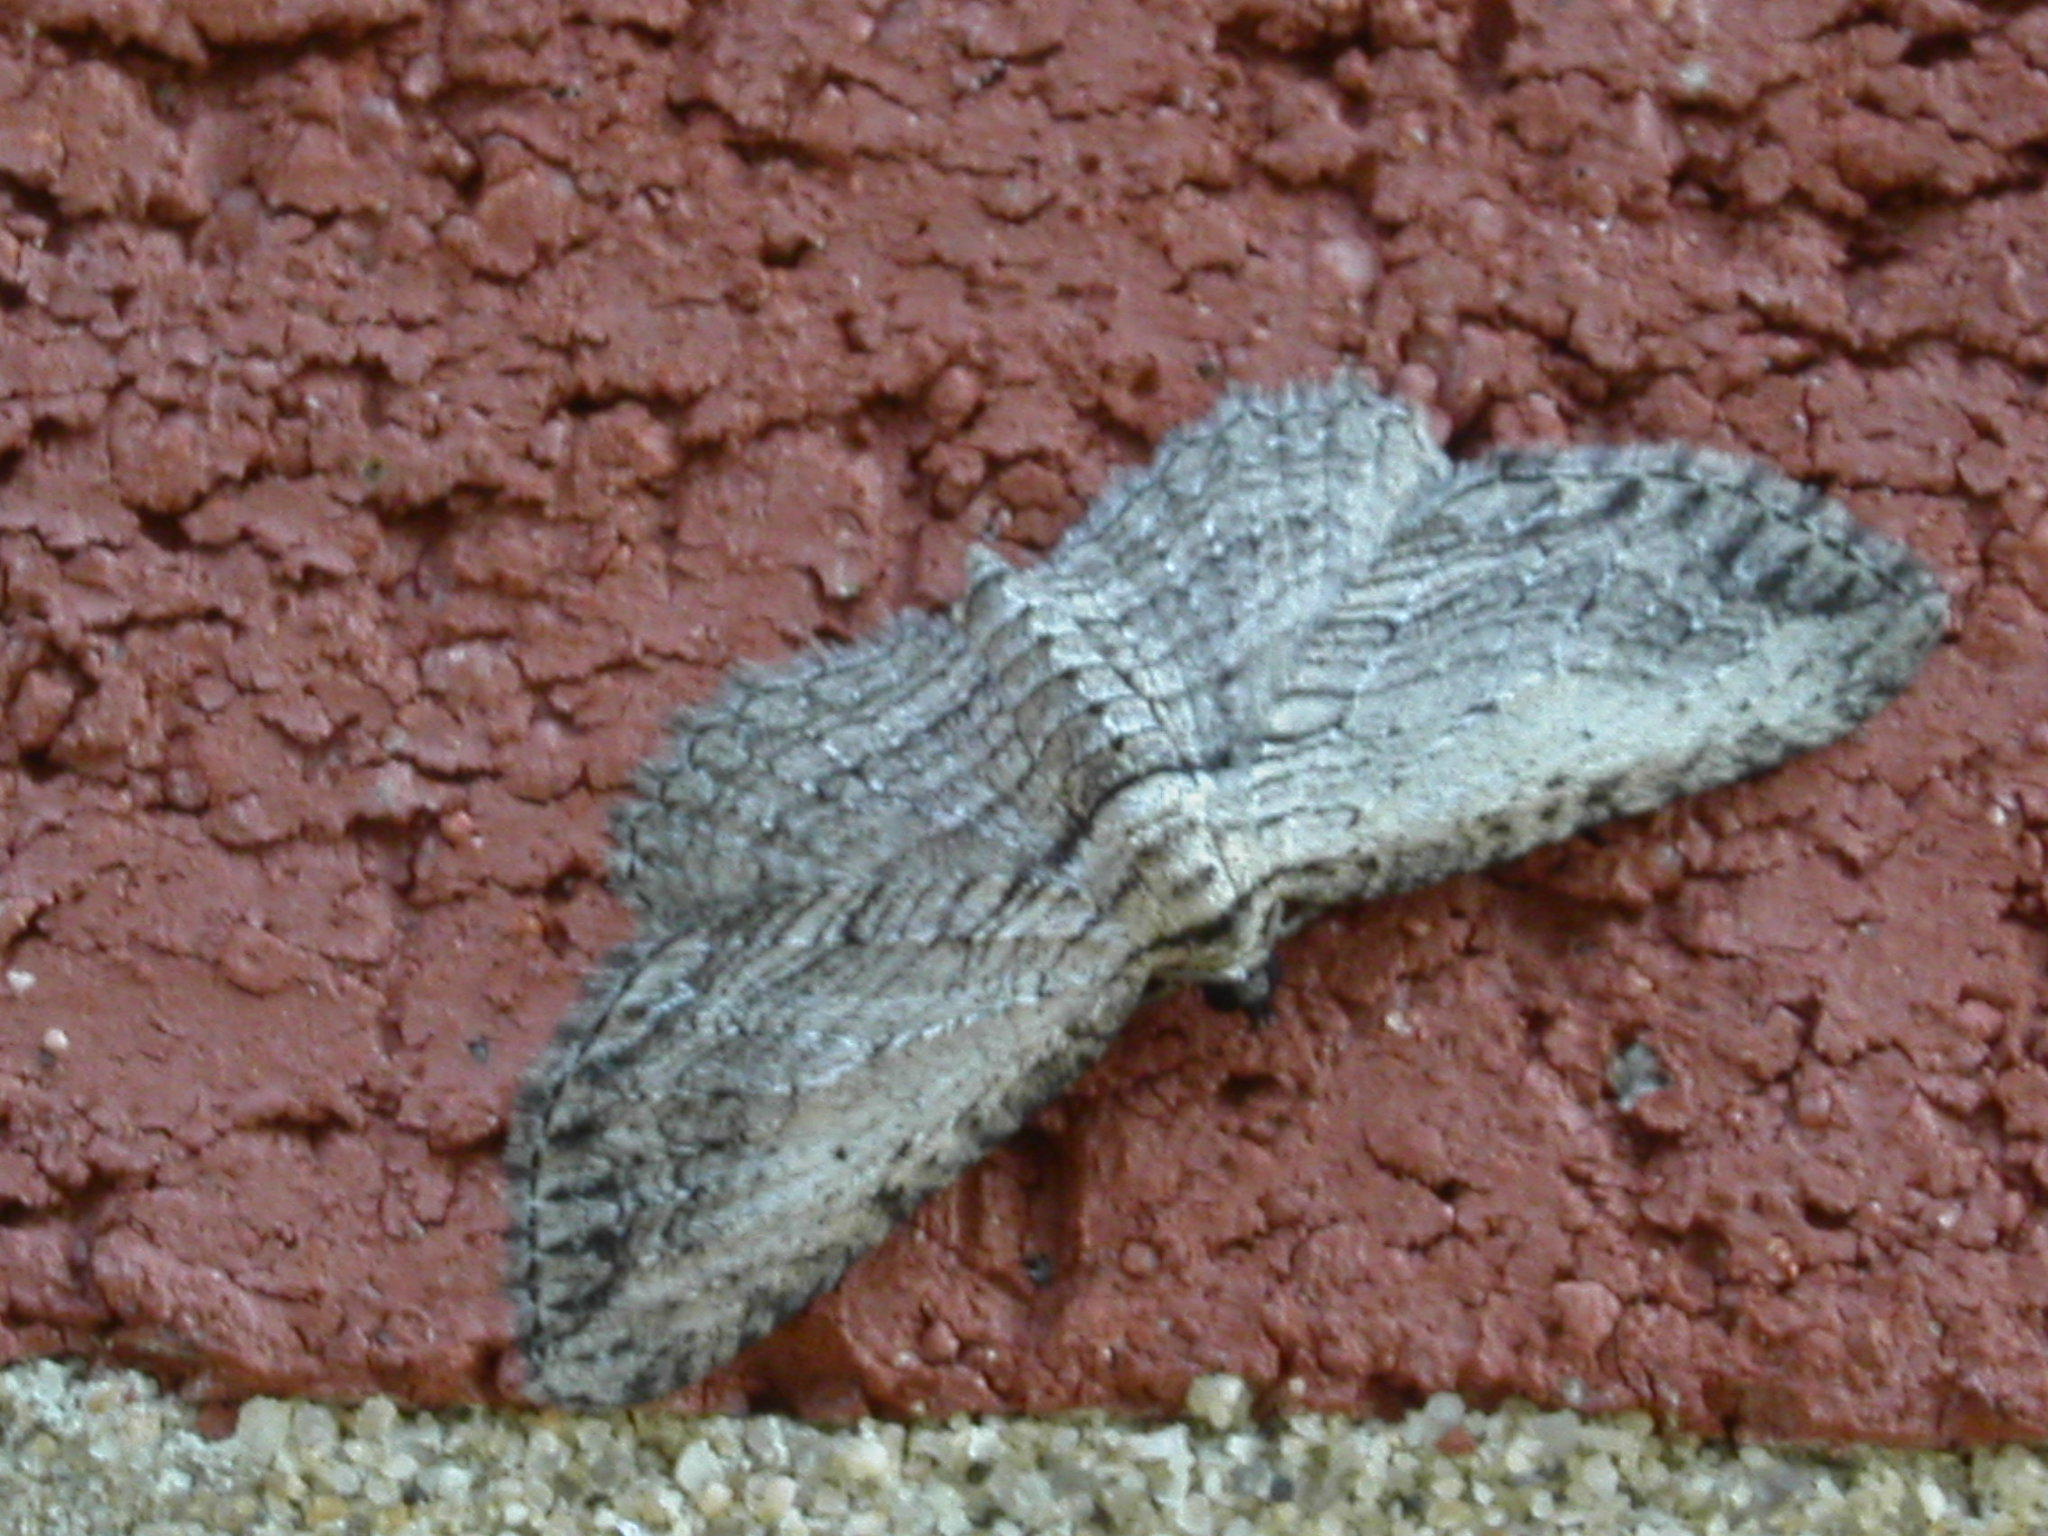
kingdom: Animalia
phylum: Arthropoda
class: Insecta
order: Lepidoptera
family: Geometridae
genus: Horisme
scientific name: Horisme intestinata
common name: Brown bark carpet
